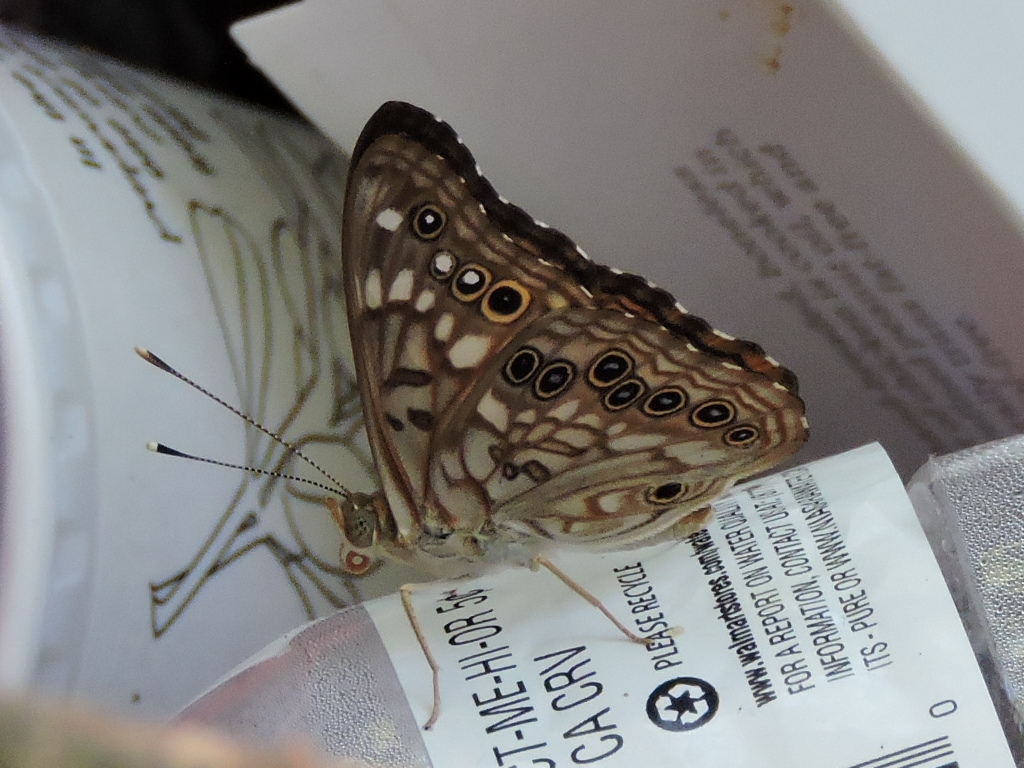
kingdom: Animalia
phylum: Arthropoda
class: Insecta
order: Lepidoptera
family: Nymphalidae
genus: Asterocampa
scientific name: Asterocampa celtis
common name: Hackberry emperor
